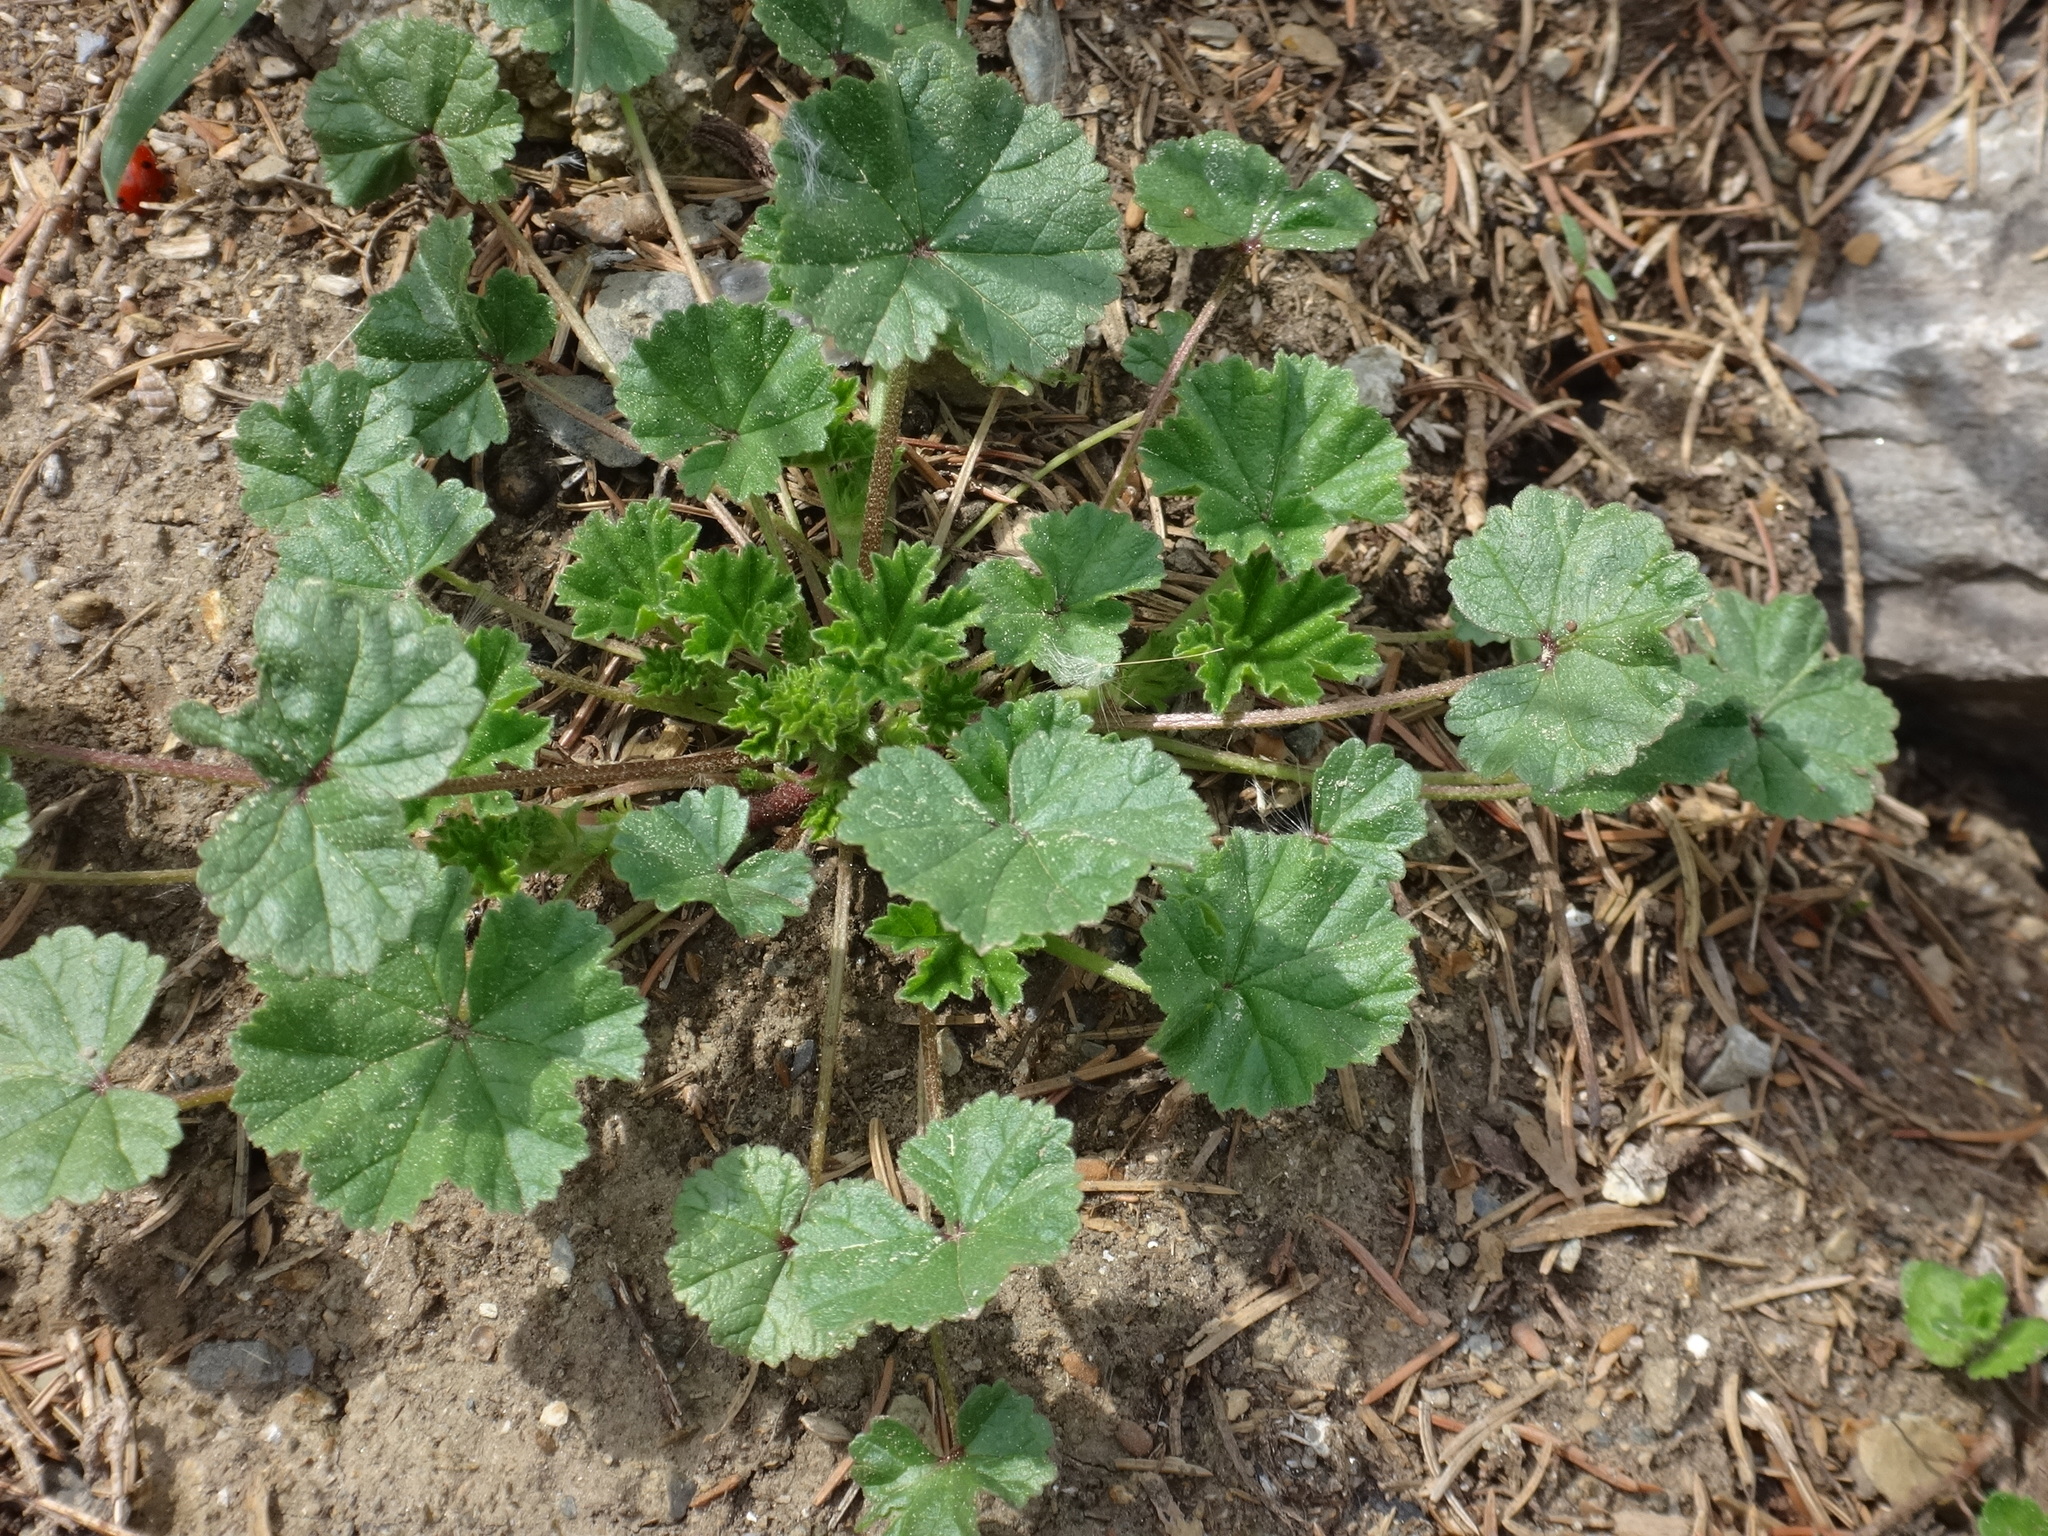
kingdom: Plantae
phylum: Tracheophyta
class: Magnoliopsida
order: Malvales
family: Malvaceae
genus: Malva
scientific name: Malva neglecta
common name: Common mallow
